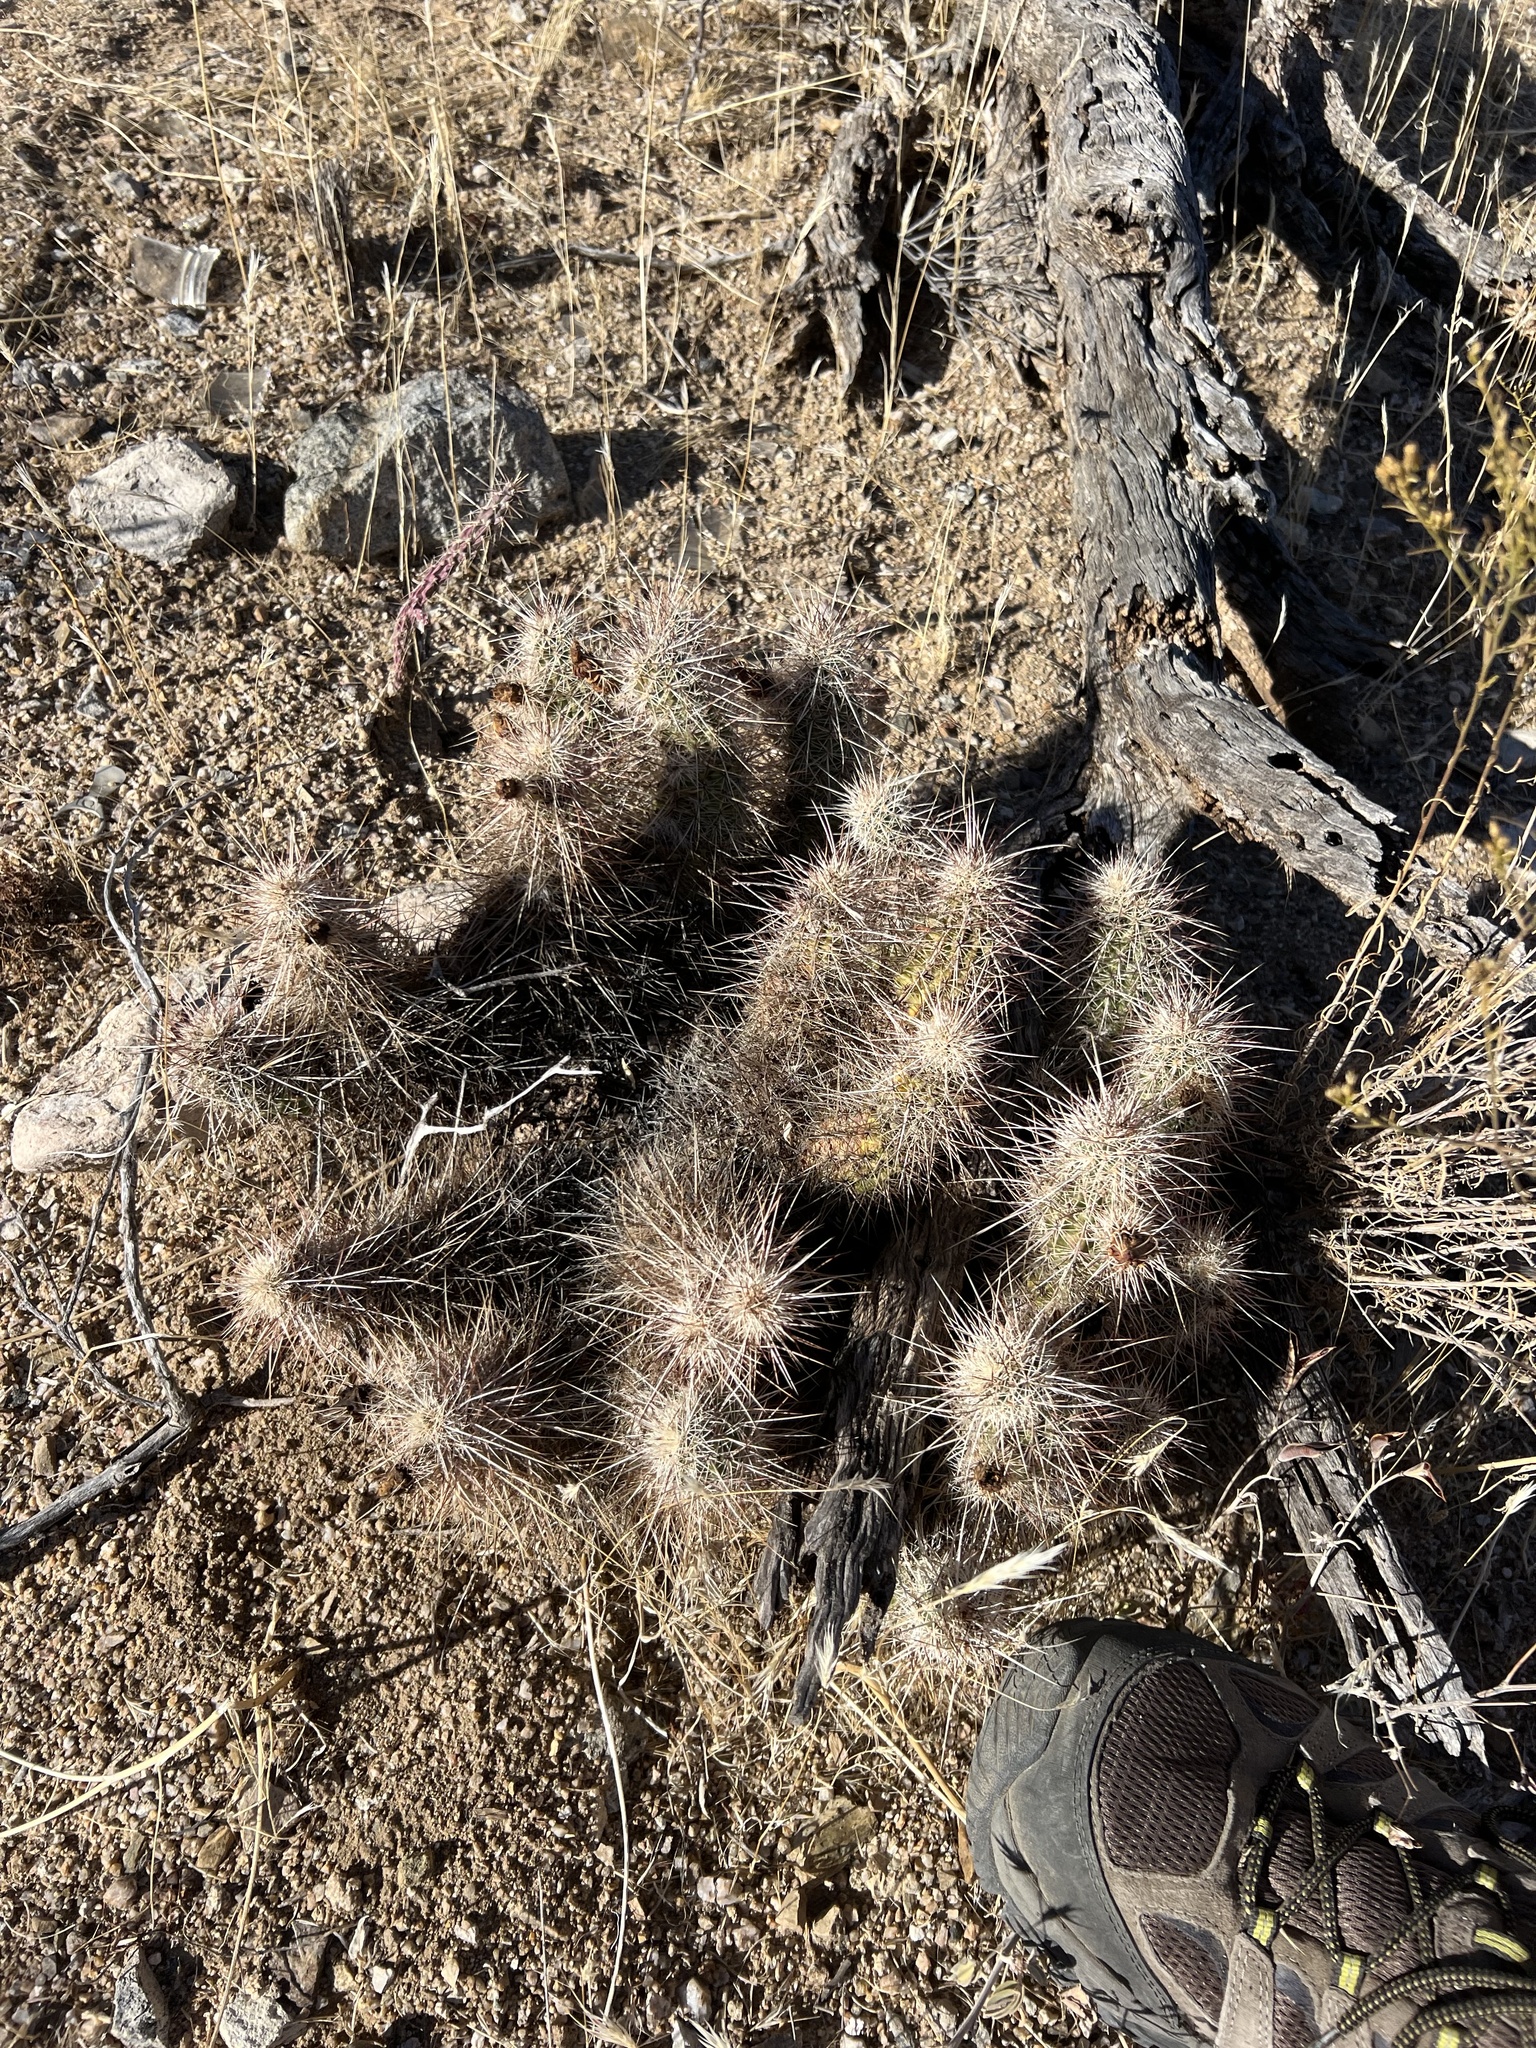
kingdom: Plantae
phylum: Tracheophyta
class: Magnoliopsida
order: Caryophyllales
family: Cactaceae
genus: Echinocereus
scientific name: Echinocereus engelmannii
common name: Engelmann's hedgehog cactus
